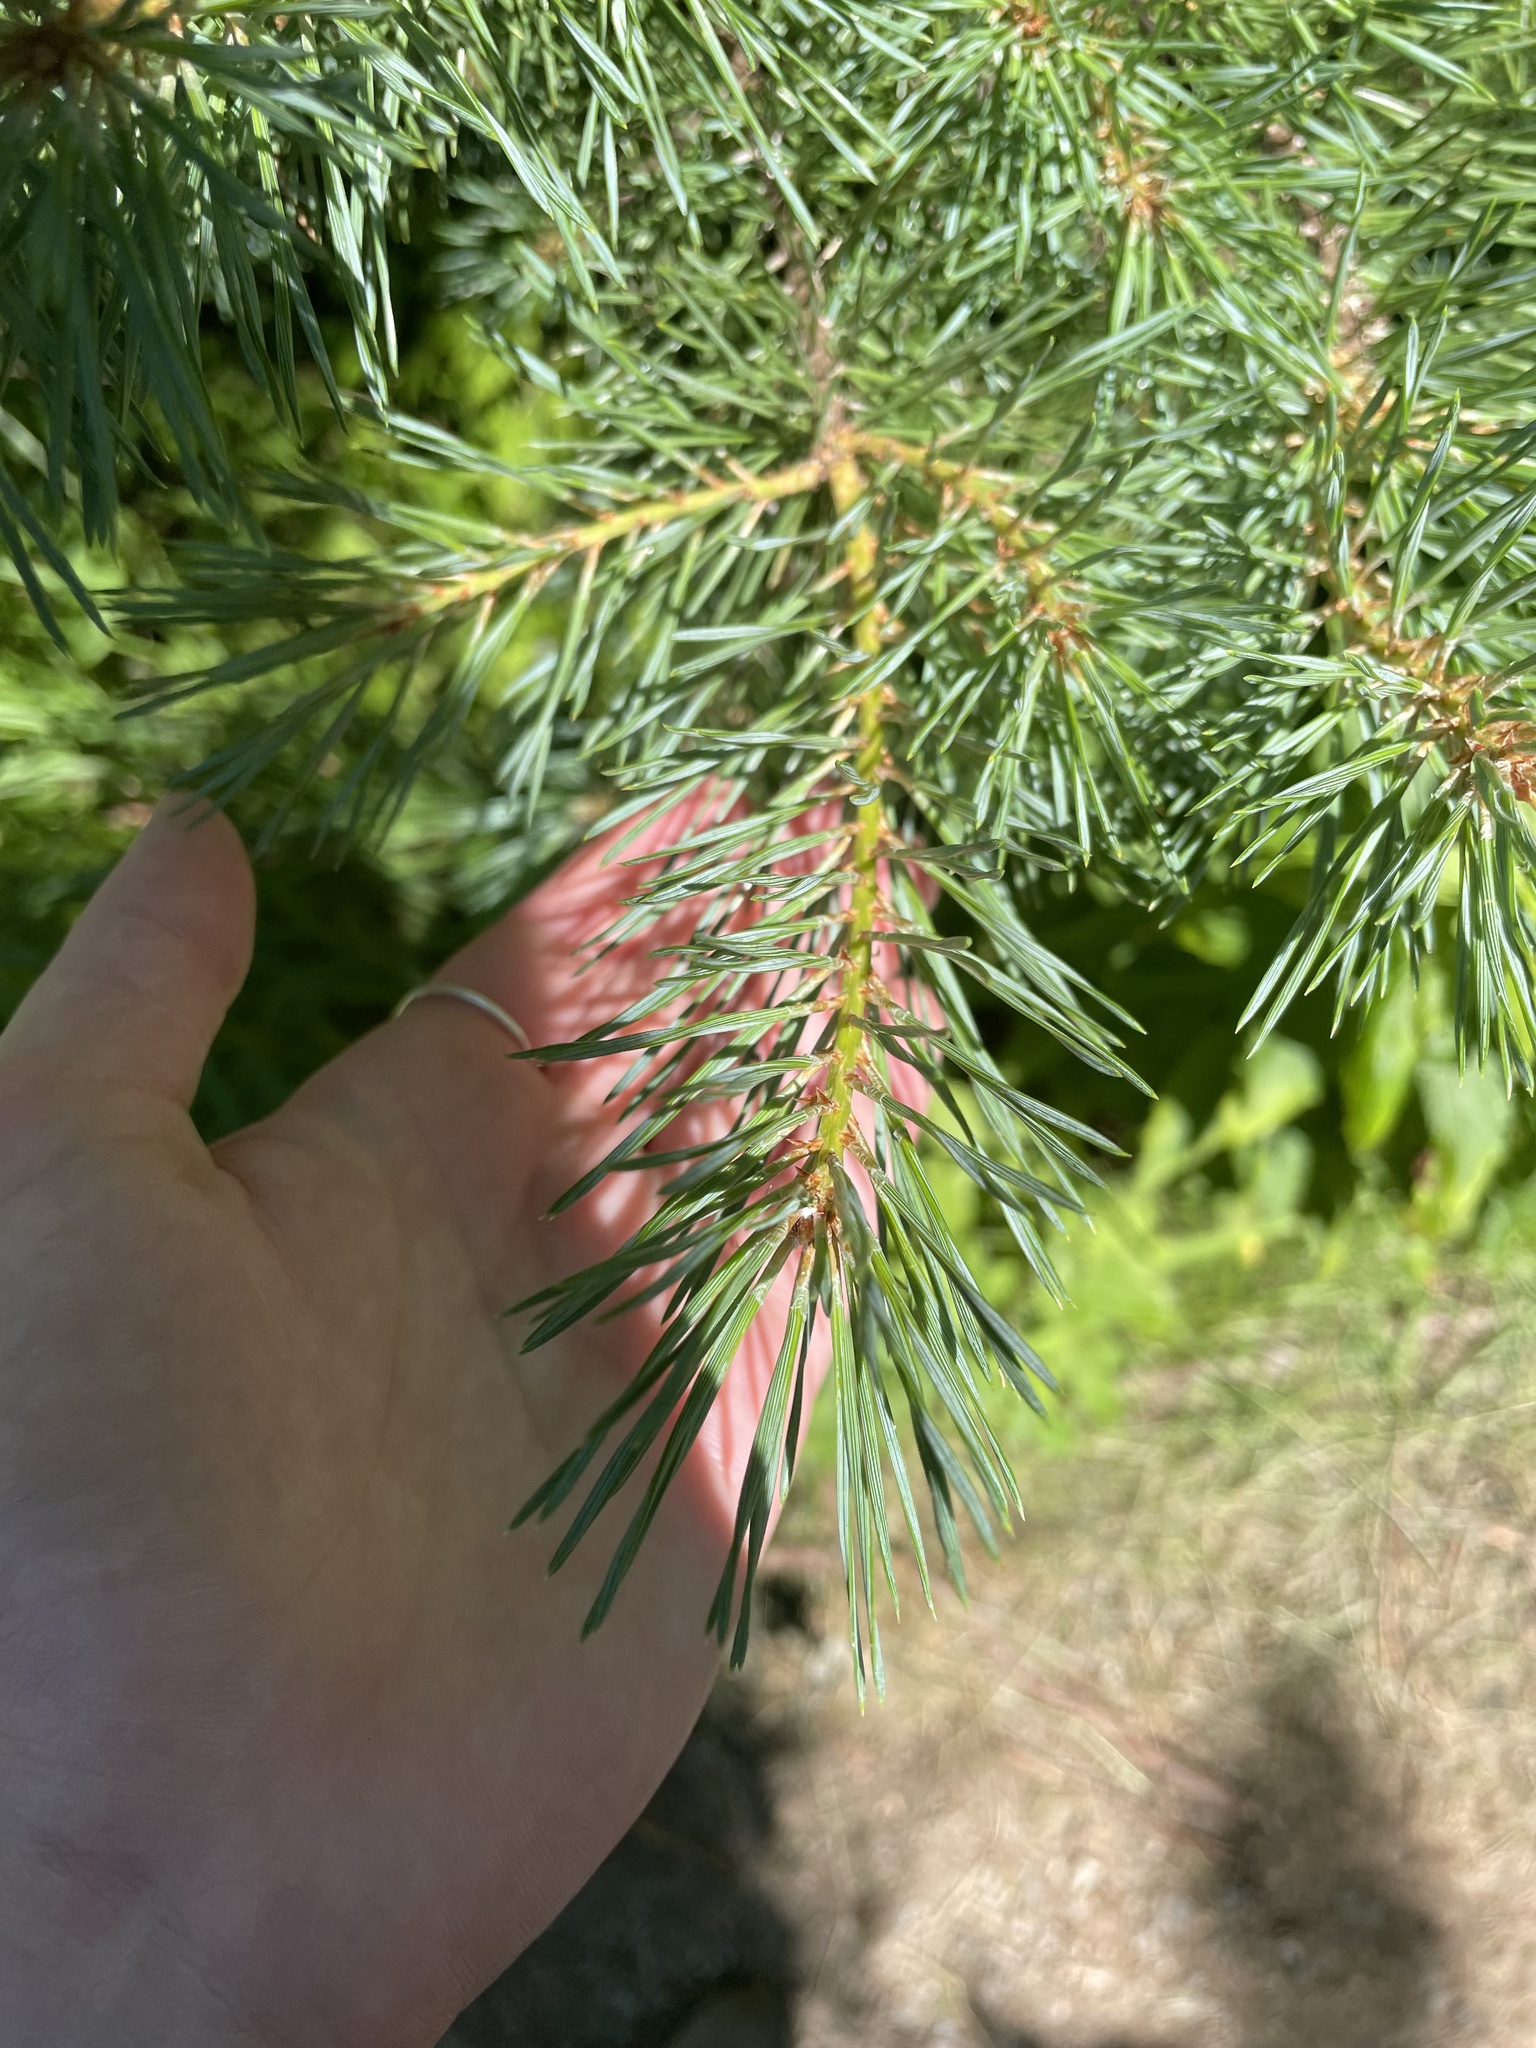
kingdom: Plantae
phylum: Tracheophyta
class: Pinopsida
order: Pinales
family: Pinaceae
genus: Pinus
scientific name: Pinus sylvestris
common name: Scots pine
